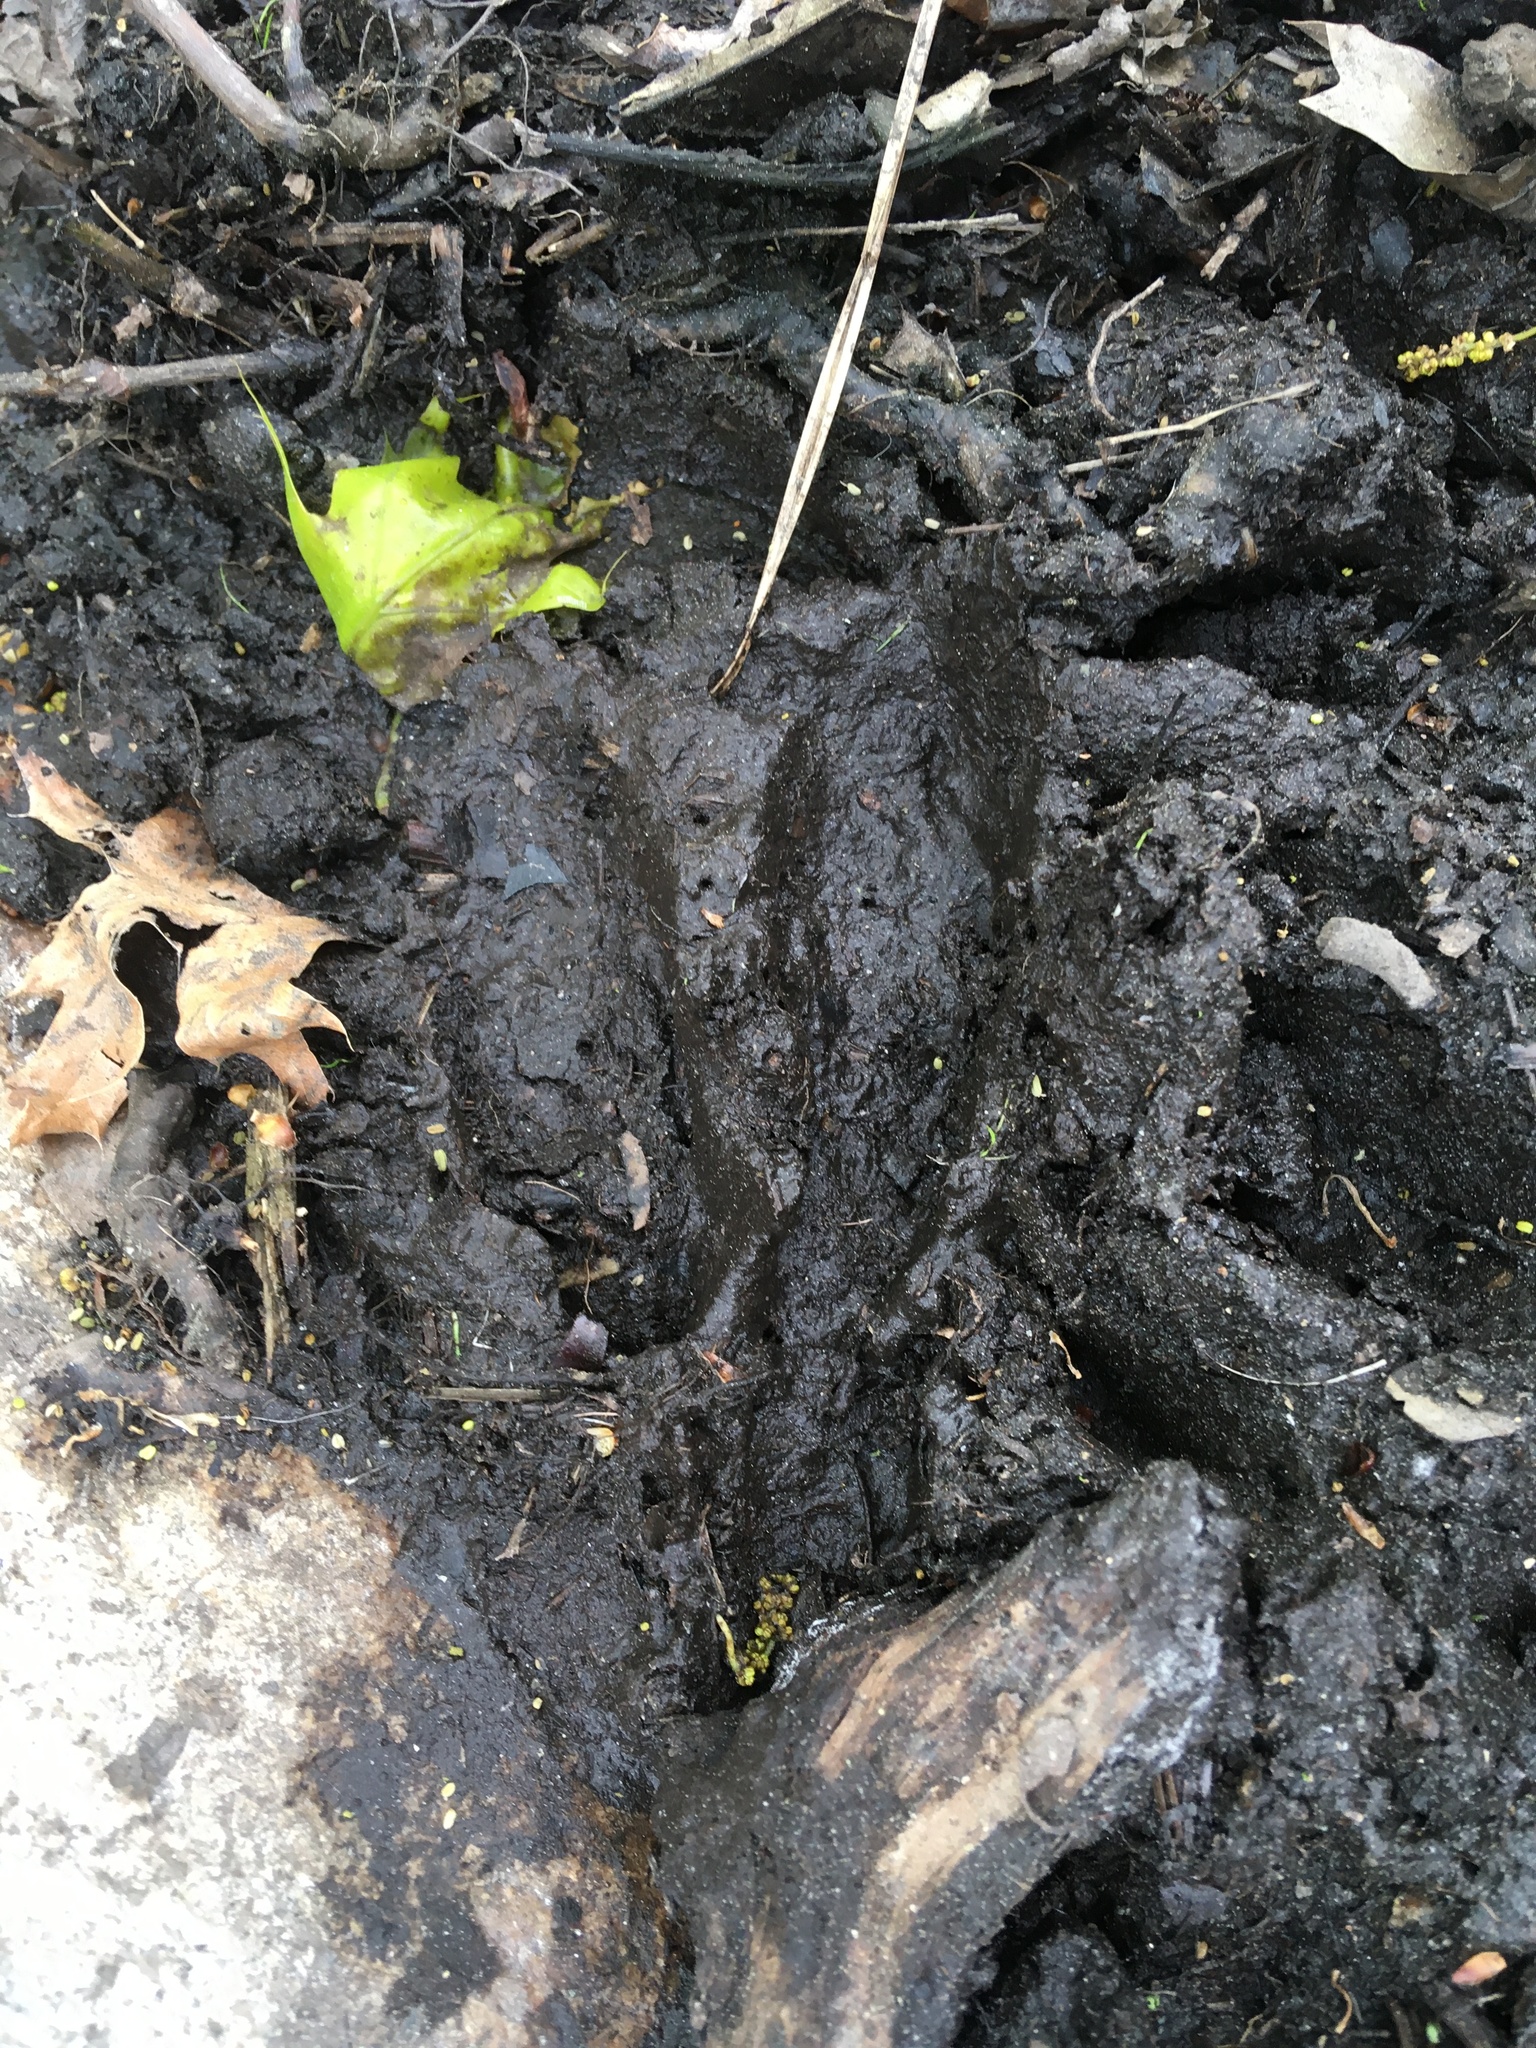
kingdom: Animalia
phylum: Chordata
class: Mammalia
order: Artiodactyla
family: Cervidae
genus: Odocoileus
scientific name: Odocoileus virginianus
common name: White-tailed deer
